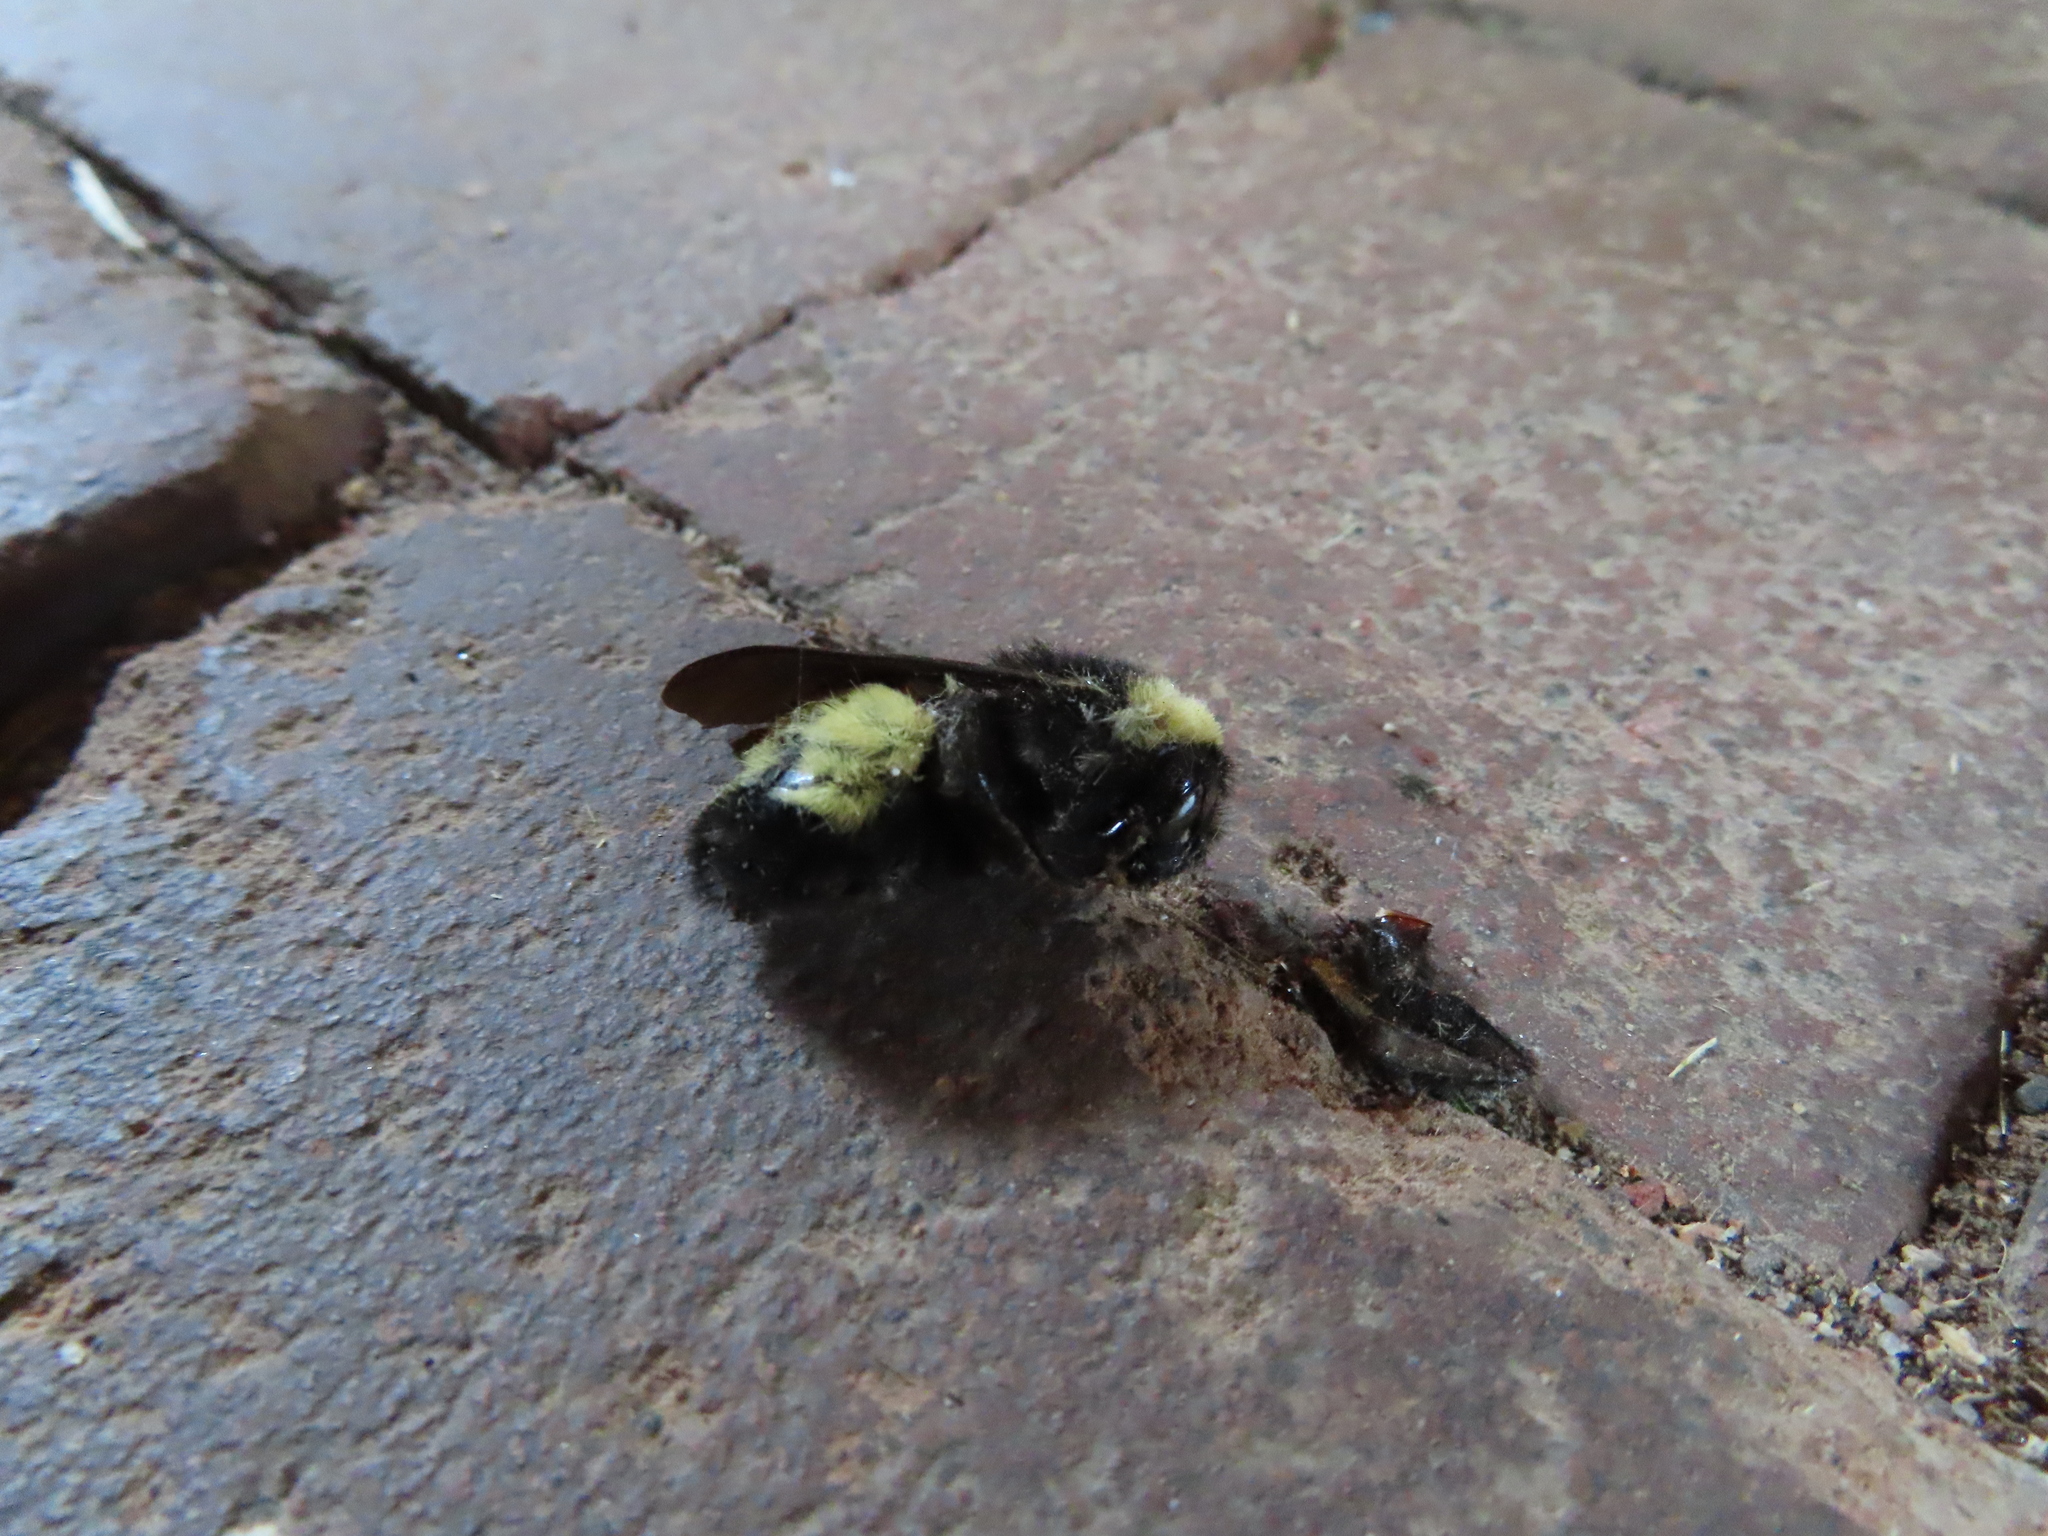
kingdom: Animalia
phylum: Arthropoda
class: Insecta
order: Hymenoptera
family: Apidae
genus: Bombus
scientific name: Bombus pensylvanicus
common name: Bumble bee
